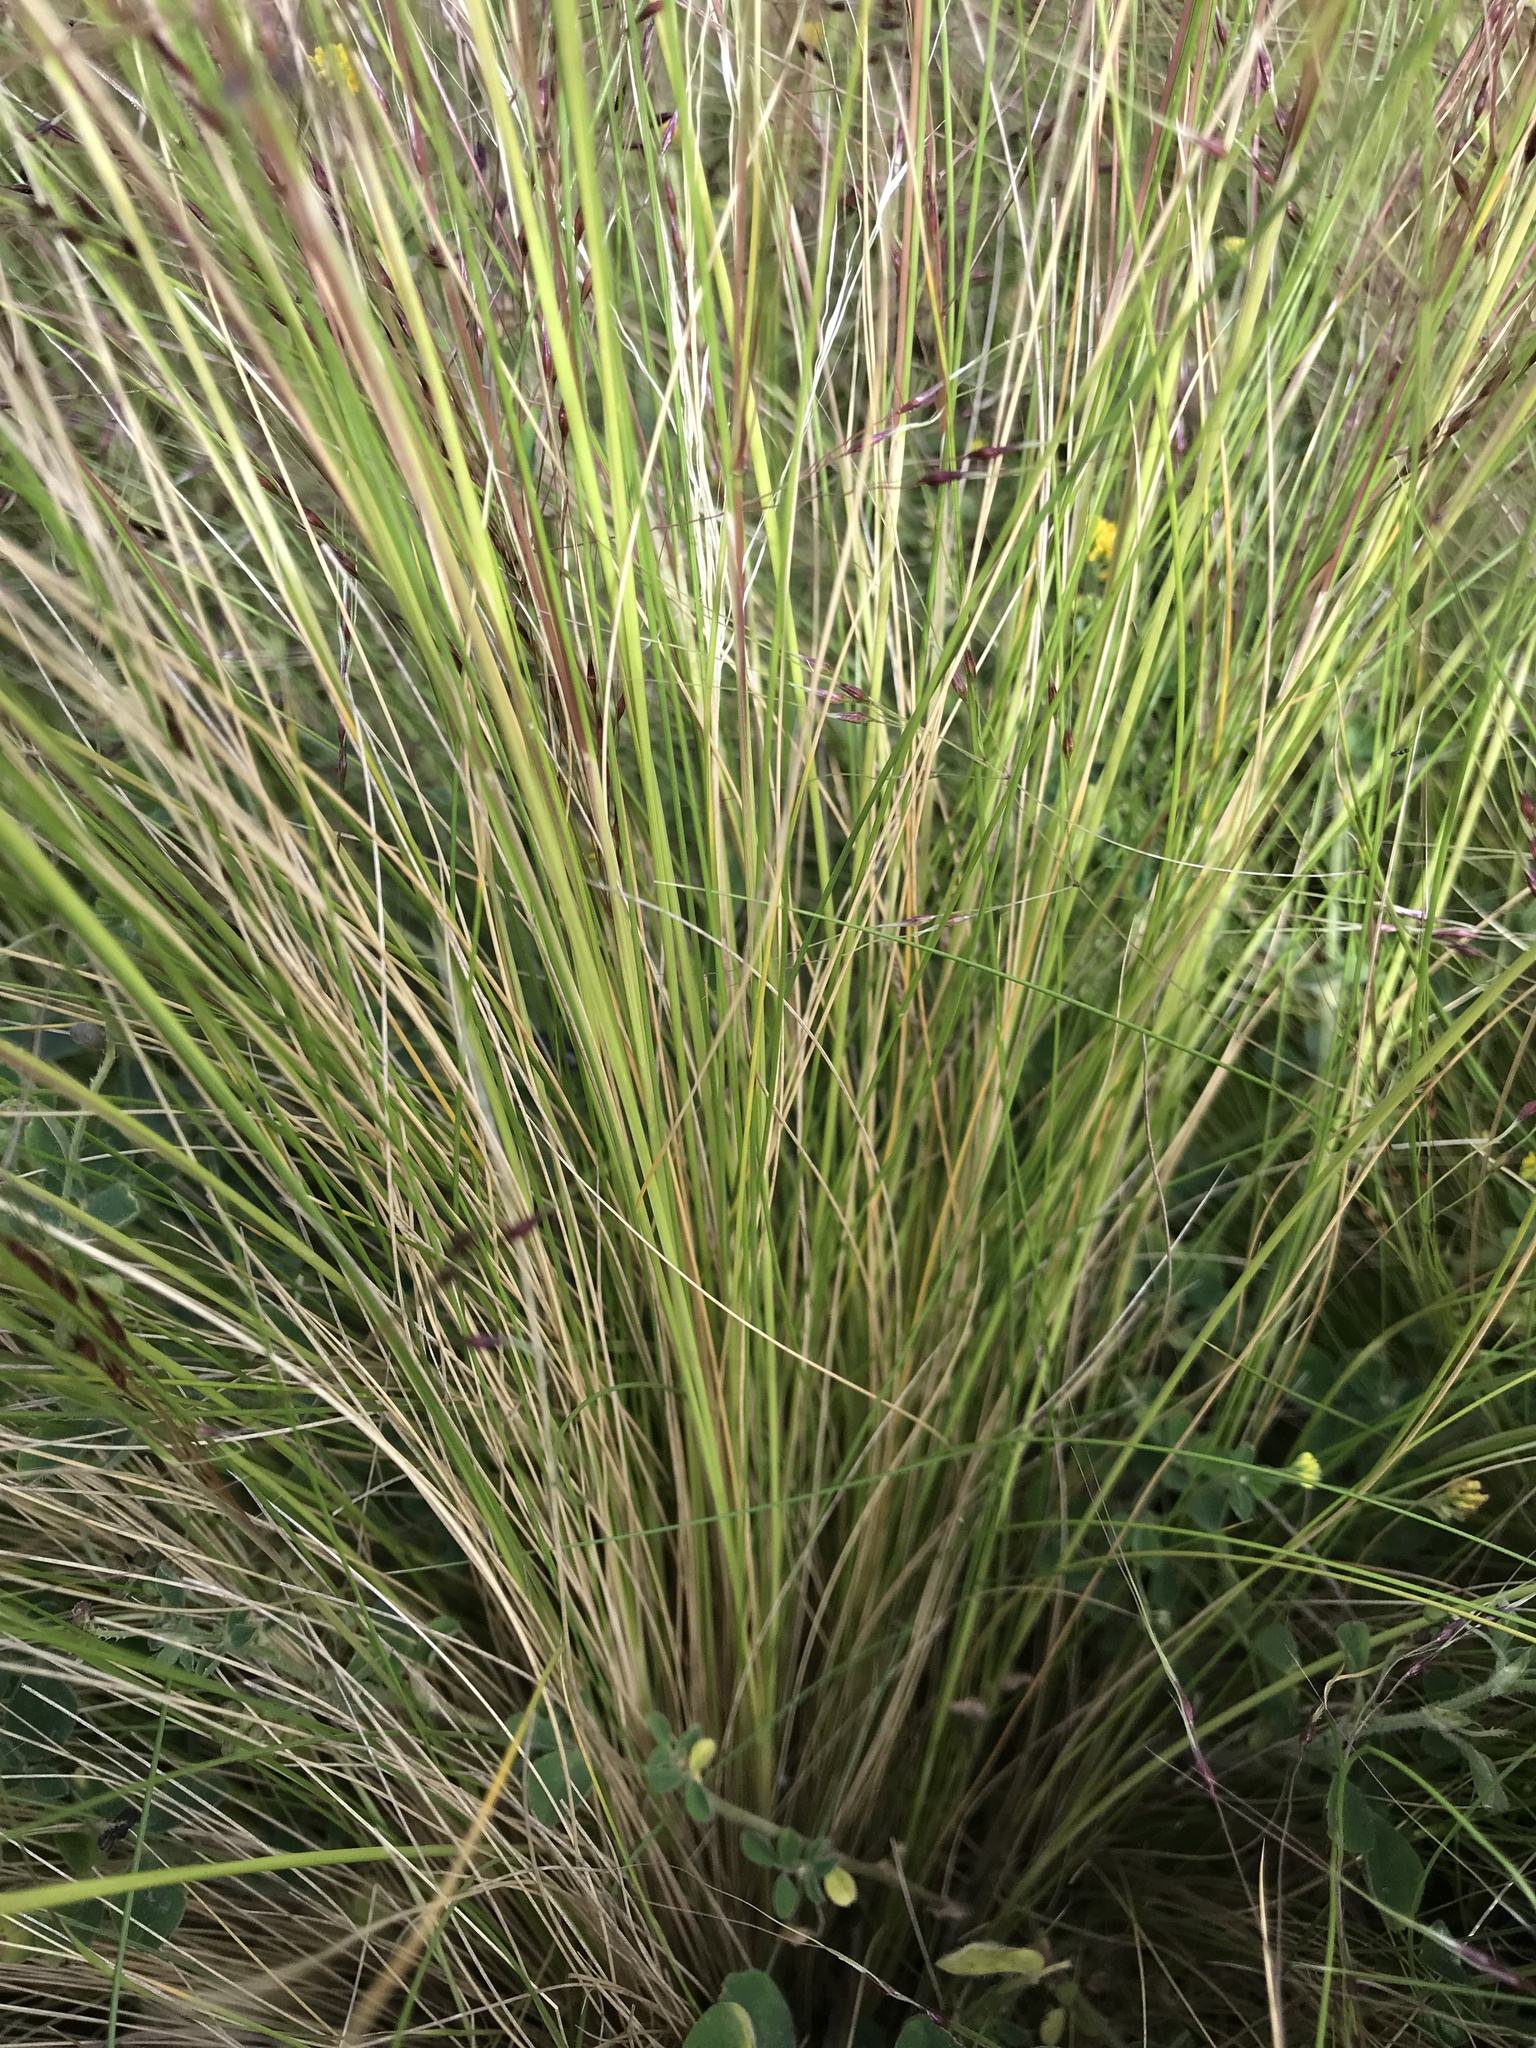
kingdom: Plantae
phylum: Tracheophyta
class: Liliopsida
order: Poales
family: Poaceae
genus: Nassella
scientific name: Nassella trichotoma
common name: Serrated tussock grass
